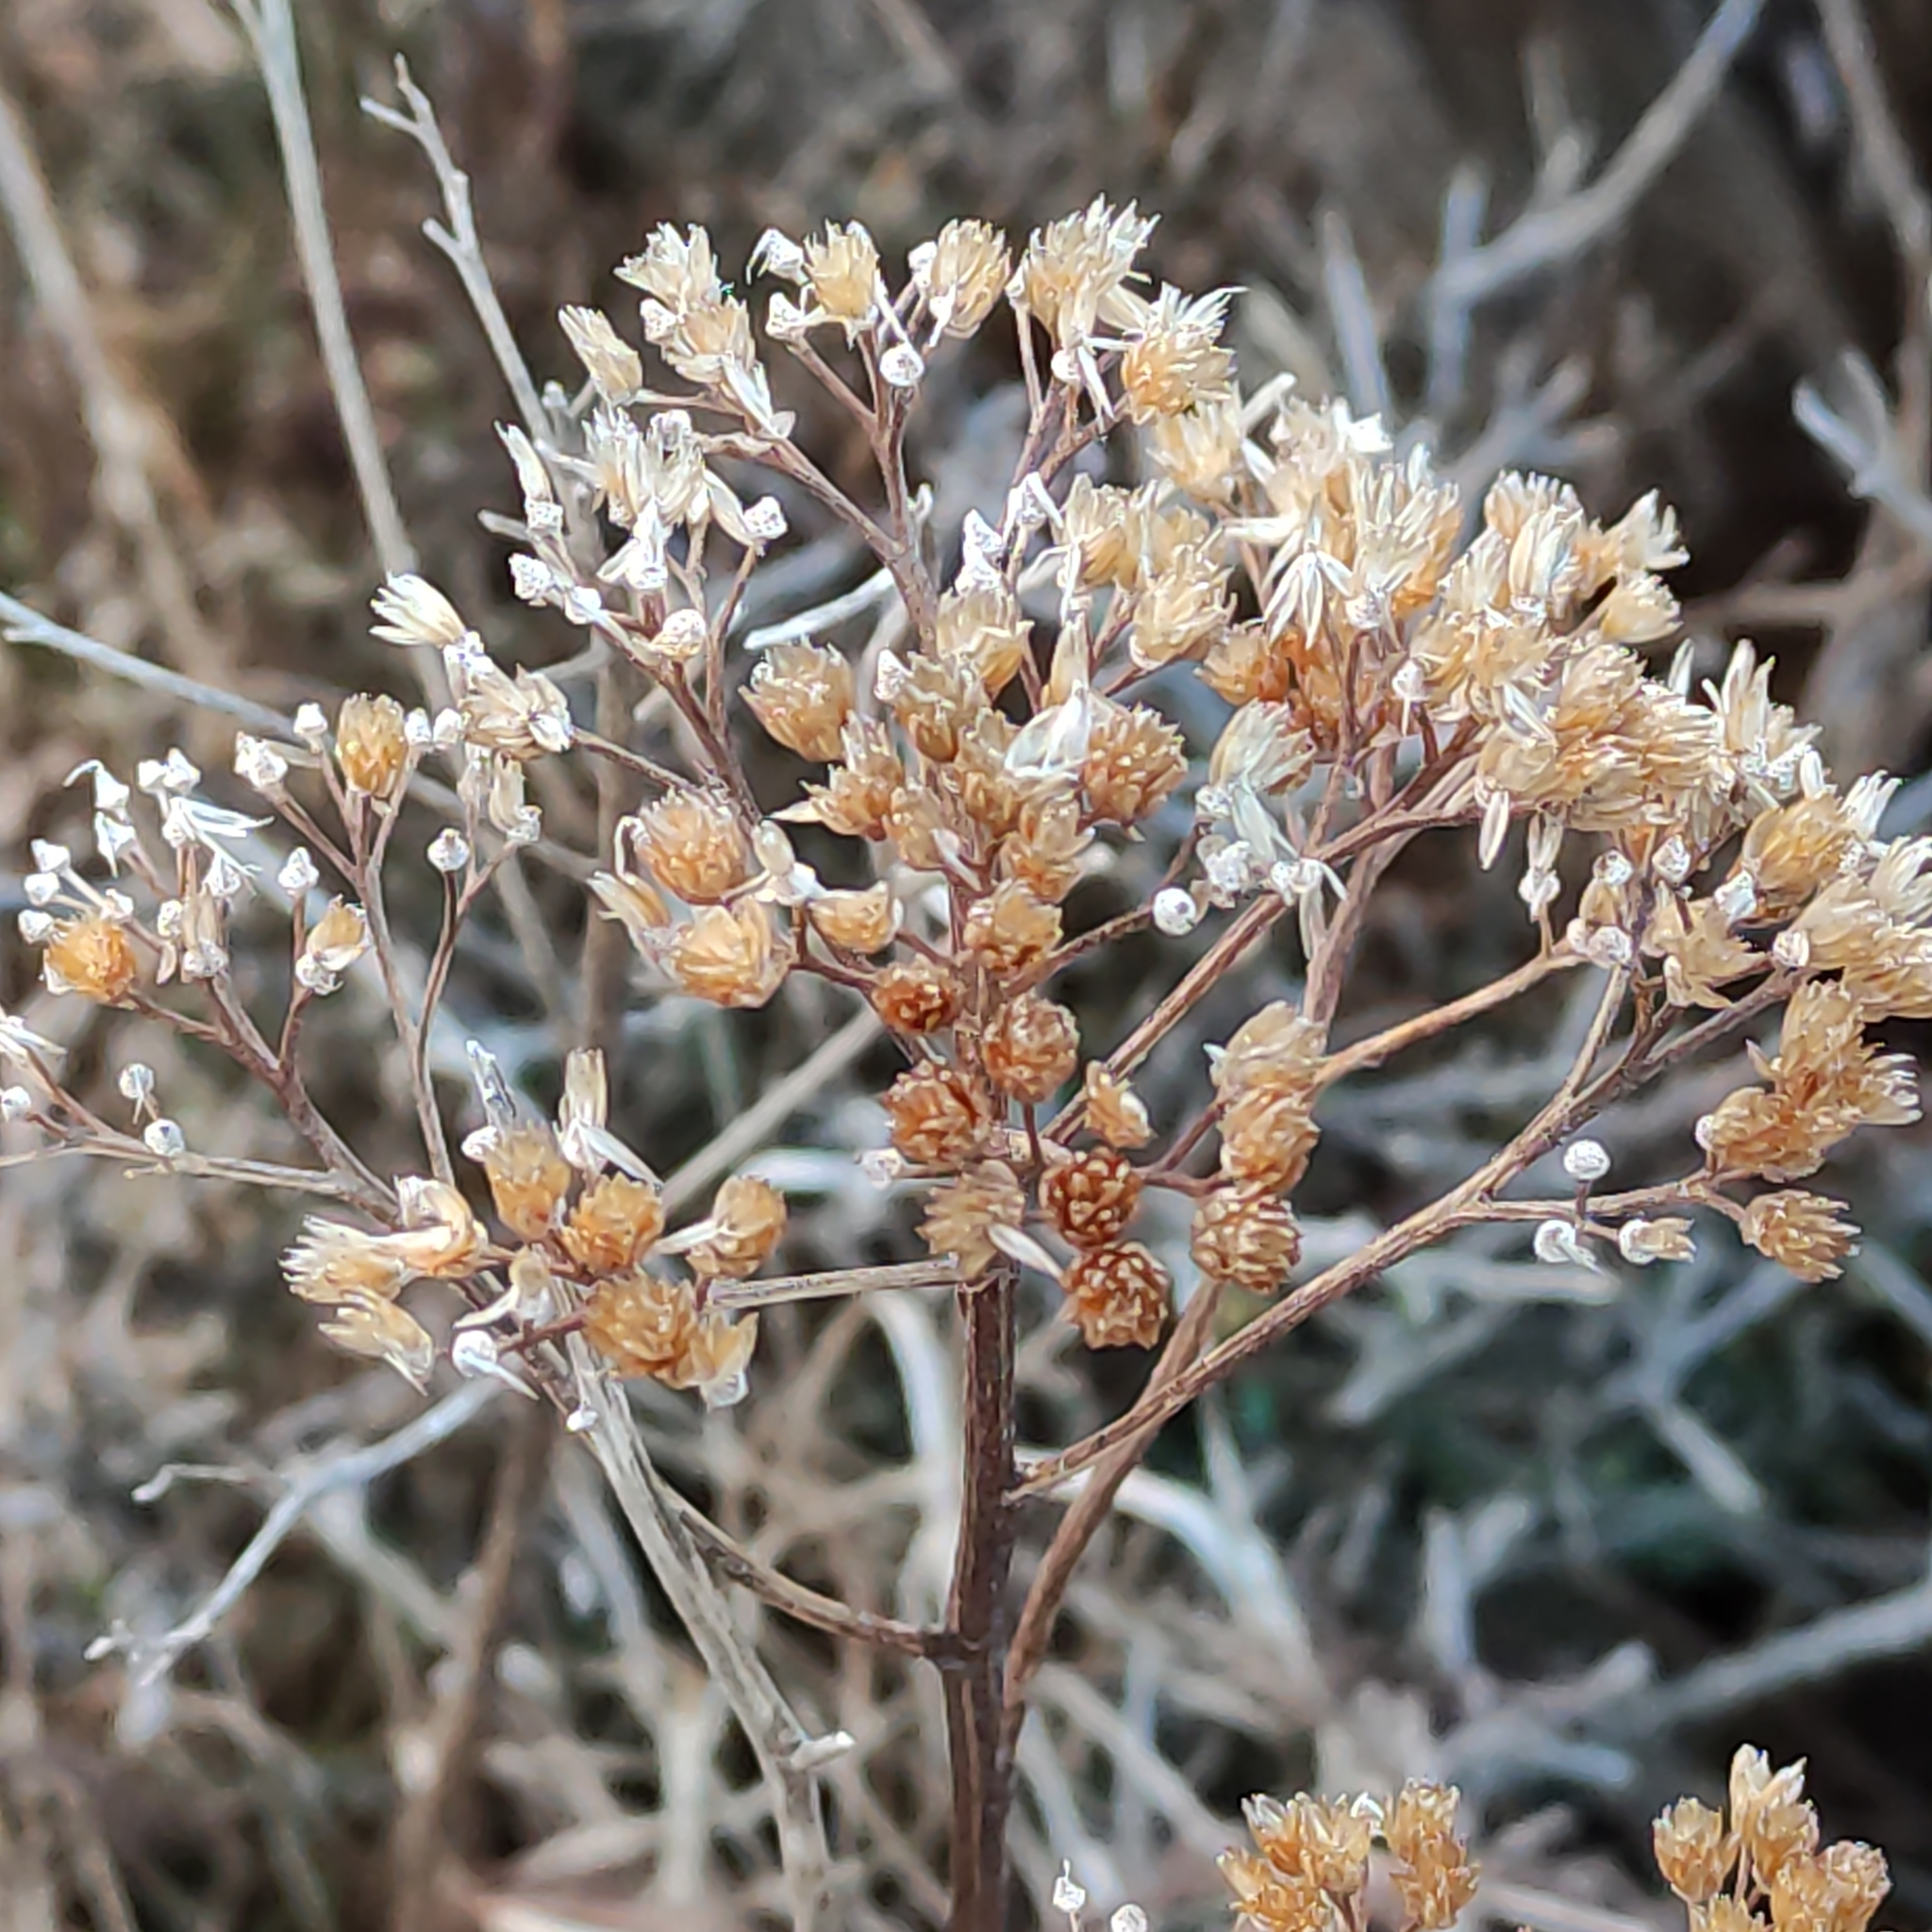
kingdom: Plantae
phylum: Tracheophyta
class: Magnoliopsida
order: Asterales
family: Asteraceae
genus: Achillea
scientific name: Achillea millefolium
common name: Yarrow
